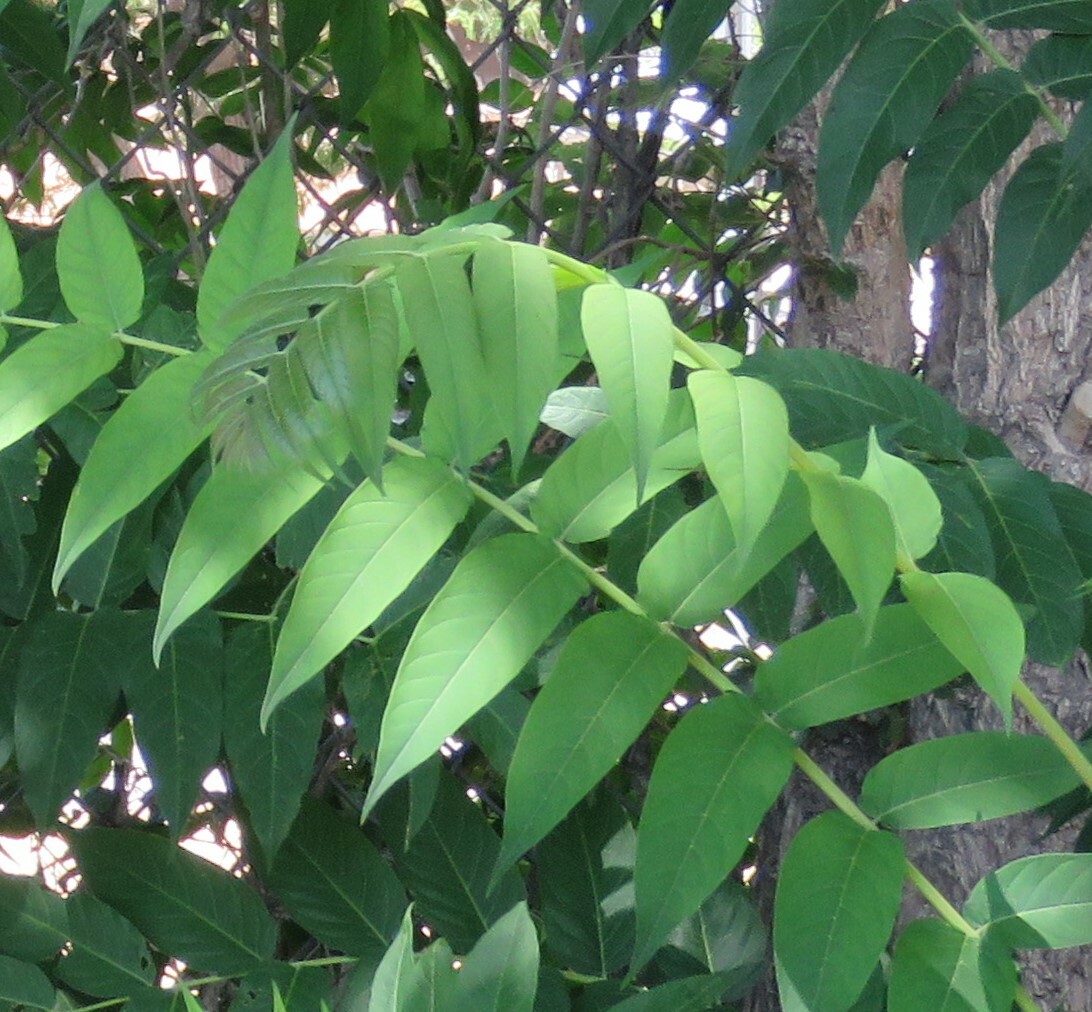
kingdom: Plantae
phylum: Tracheophyta
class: Magnoliopsida
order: Sapindales
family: Simaroubaceae
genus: Ailanthus
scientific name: Ailanthus altissima
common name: Tree-of-heaven
